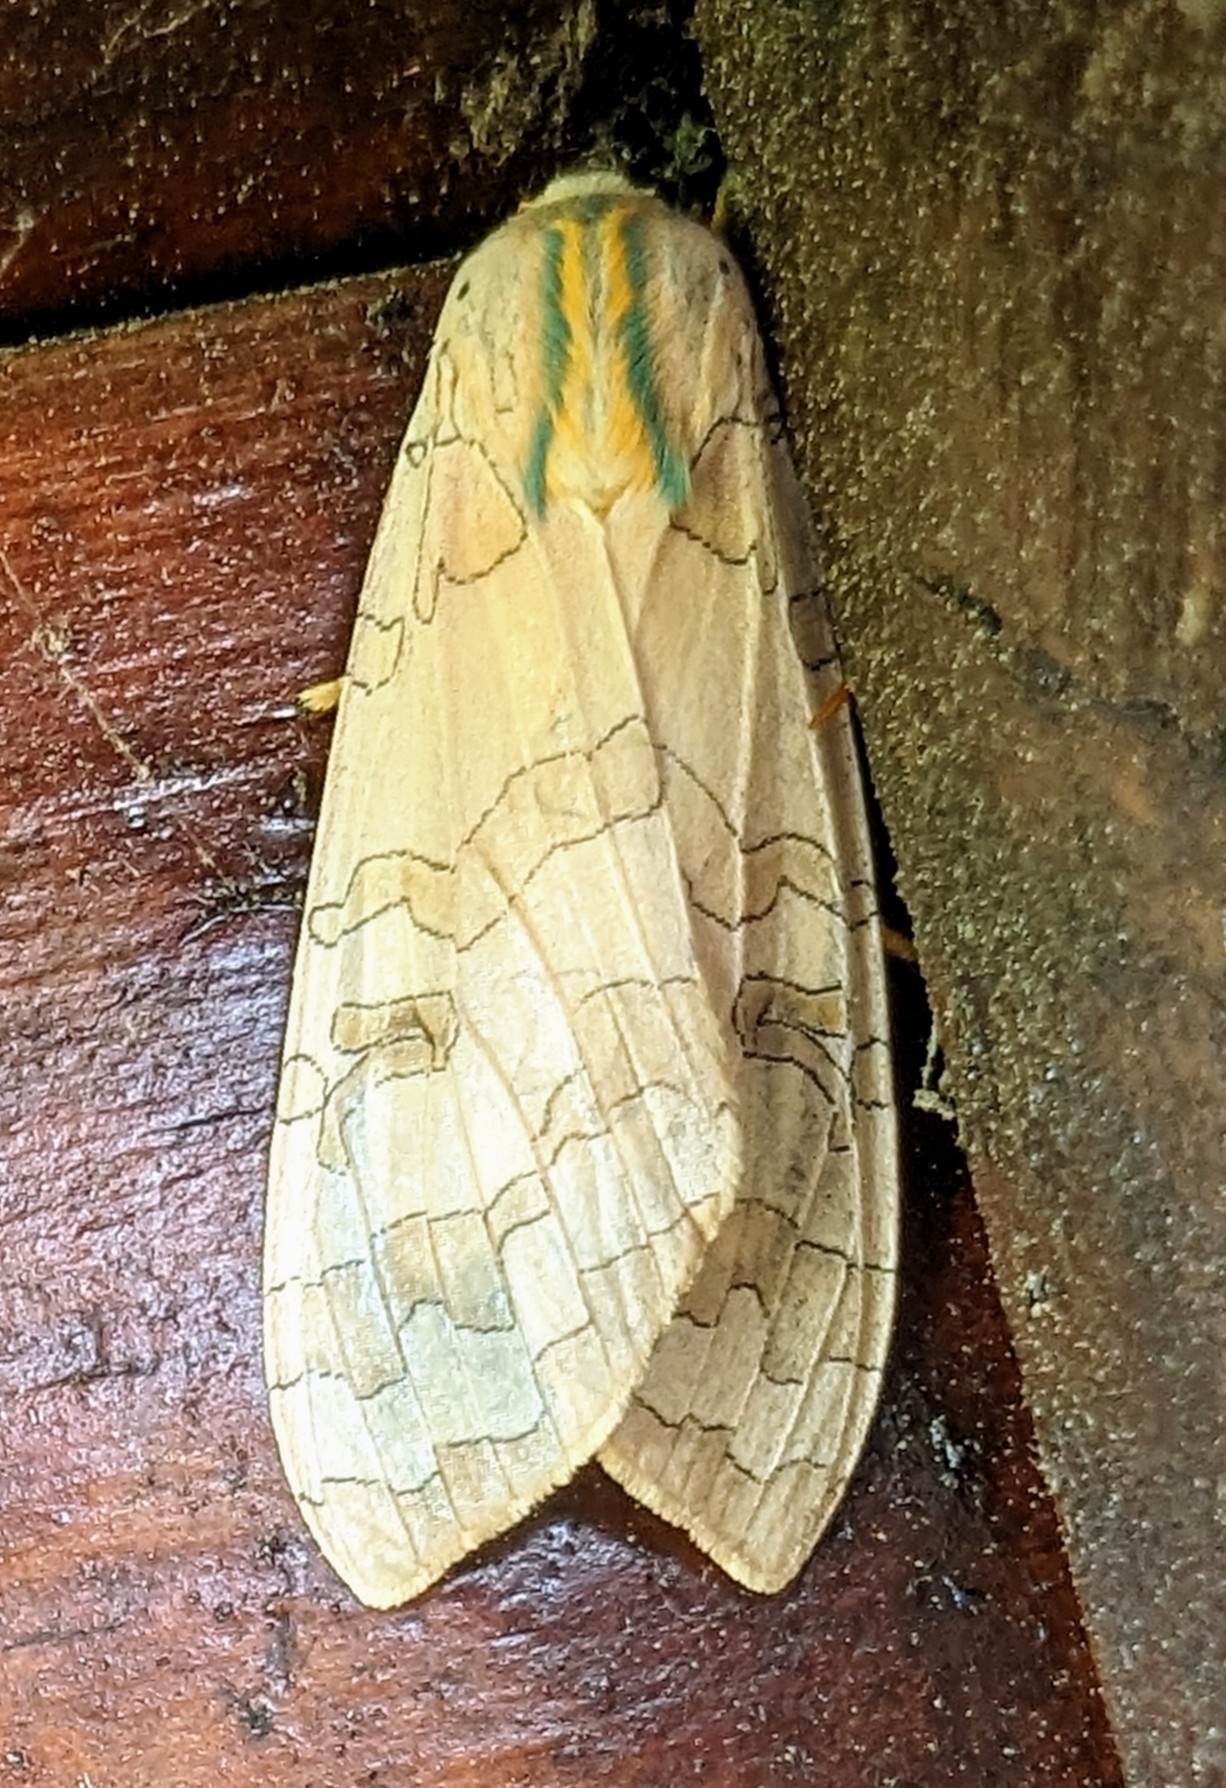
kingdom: Animalia
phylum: Arthropoda
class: Insecta
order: Lepidoptera
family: Erebidae
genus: Halysidota
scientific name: Halysidota tessellaris
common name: Banded tussock moth
